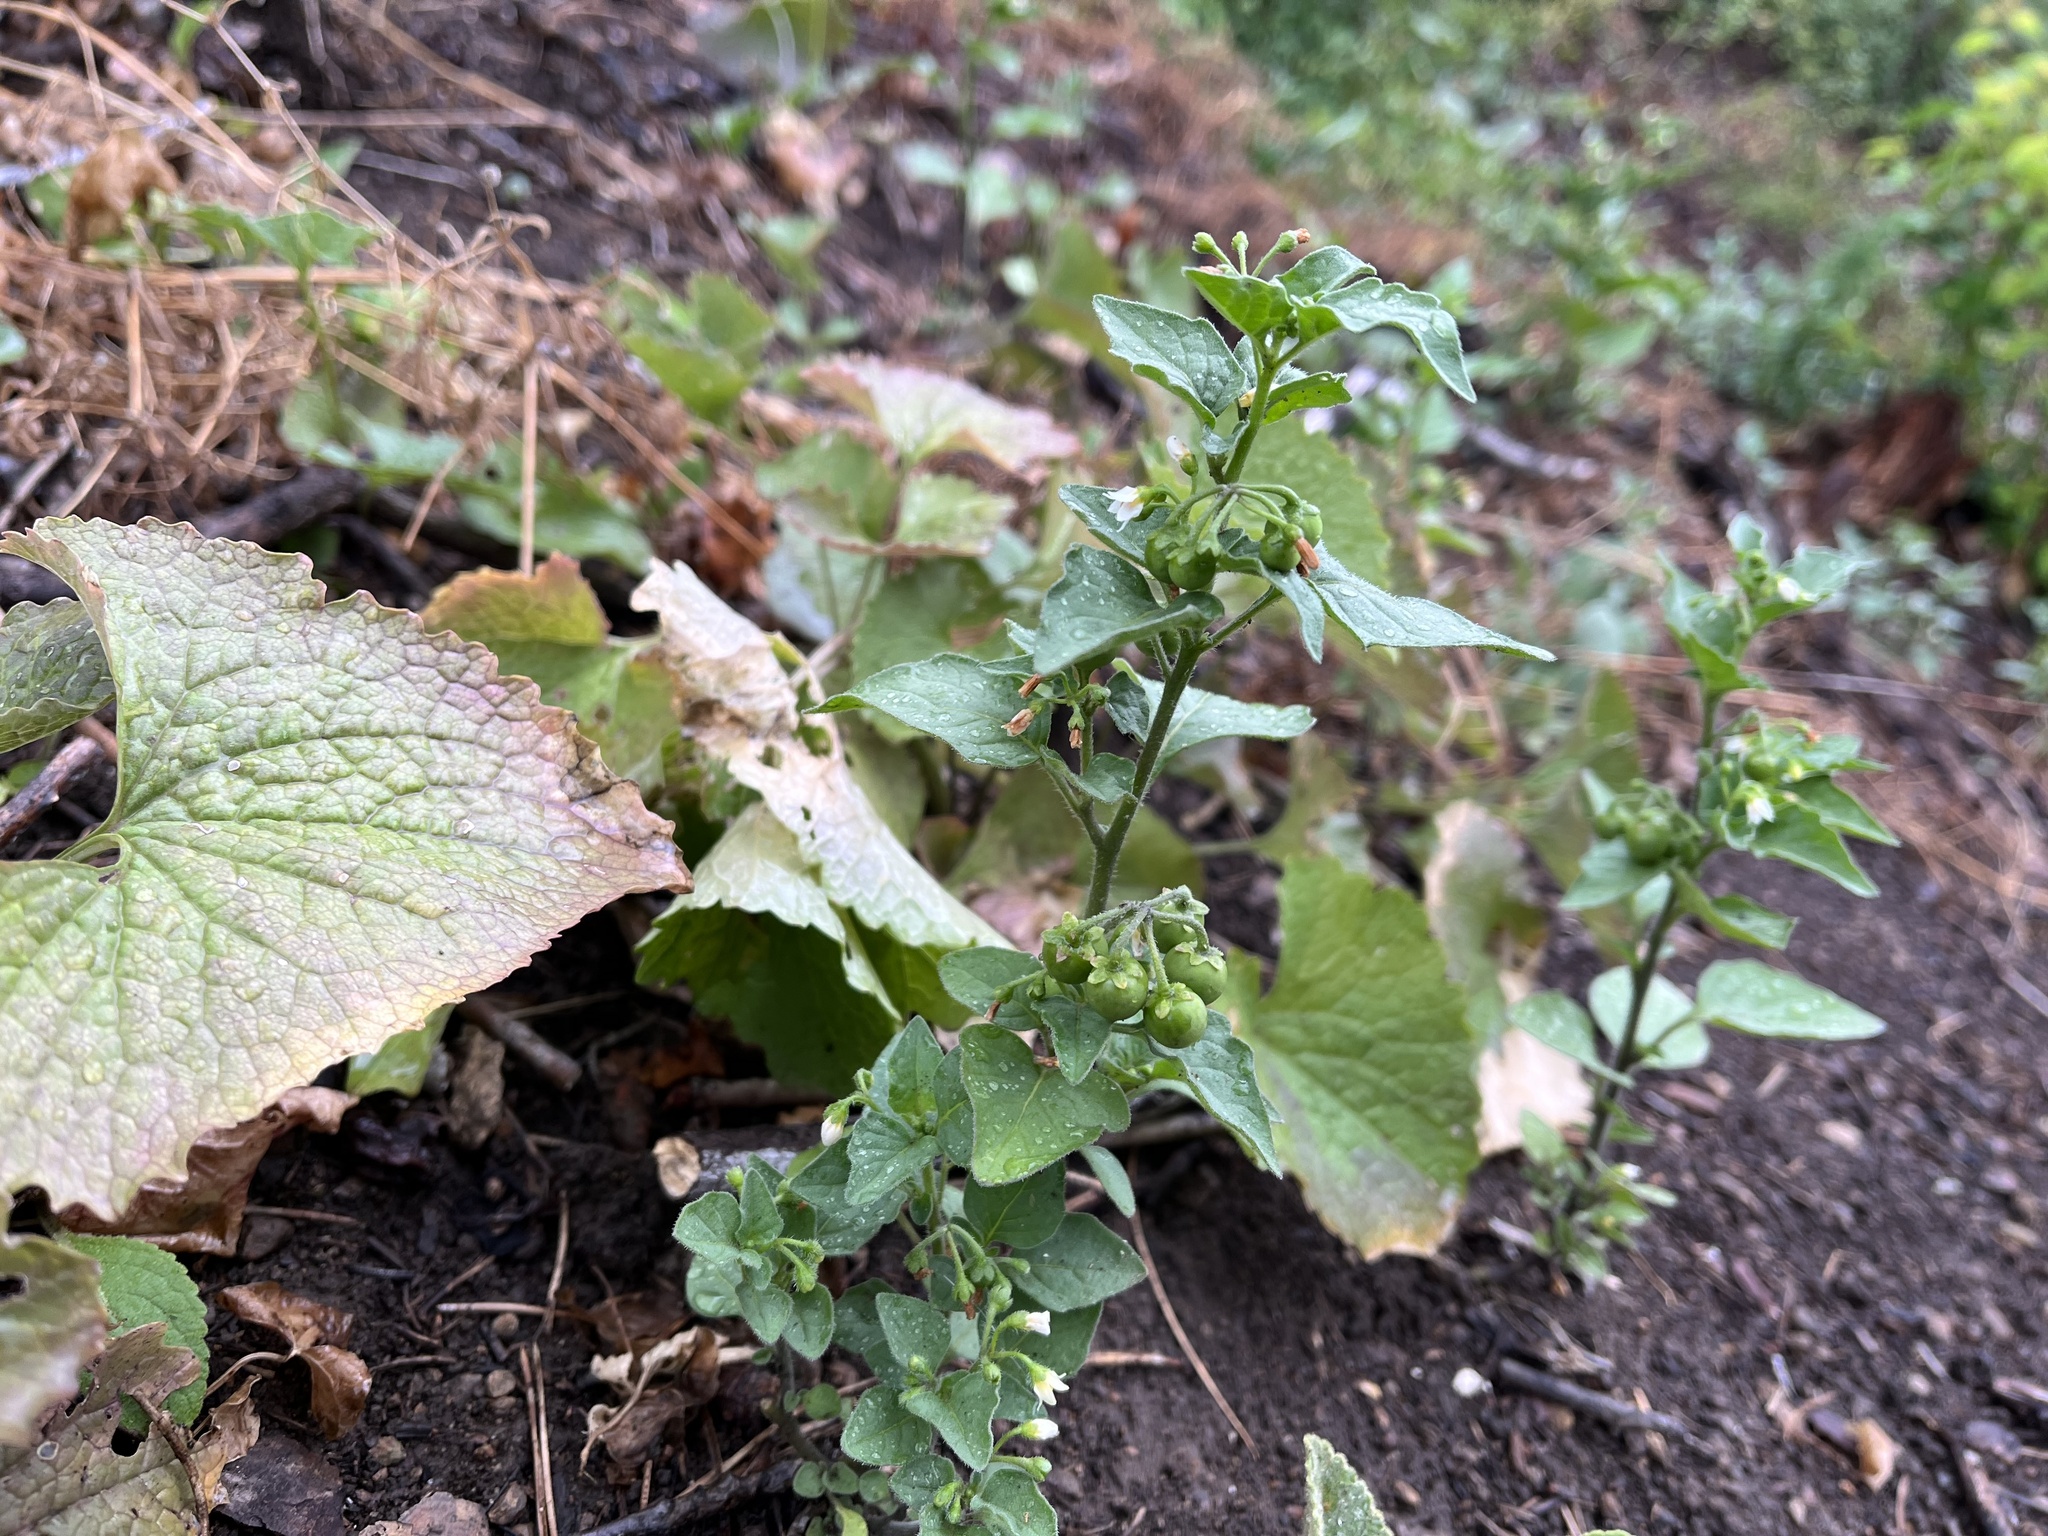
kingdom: Plantae
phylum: Tracheophyta
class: Magnoliopsida
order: Solanales
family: Solanaceae
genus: Solanum
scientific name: Solanum nigrum
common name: Black nightshade
